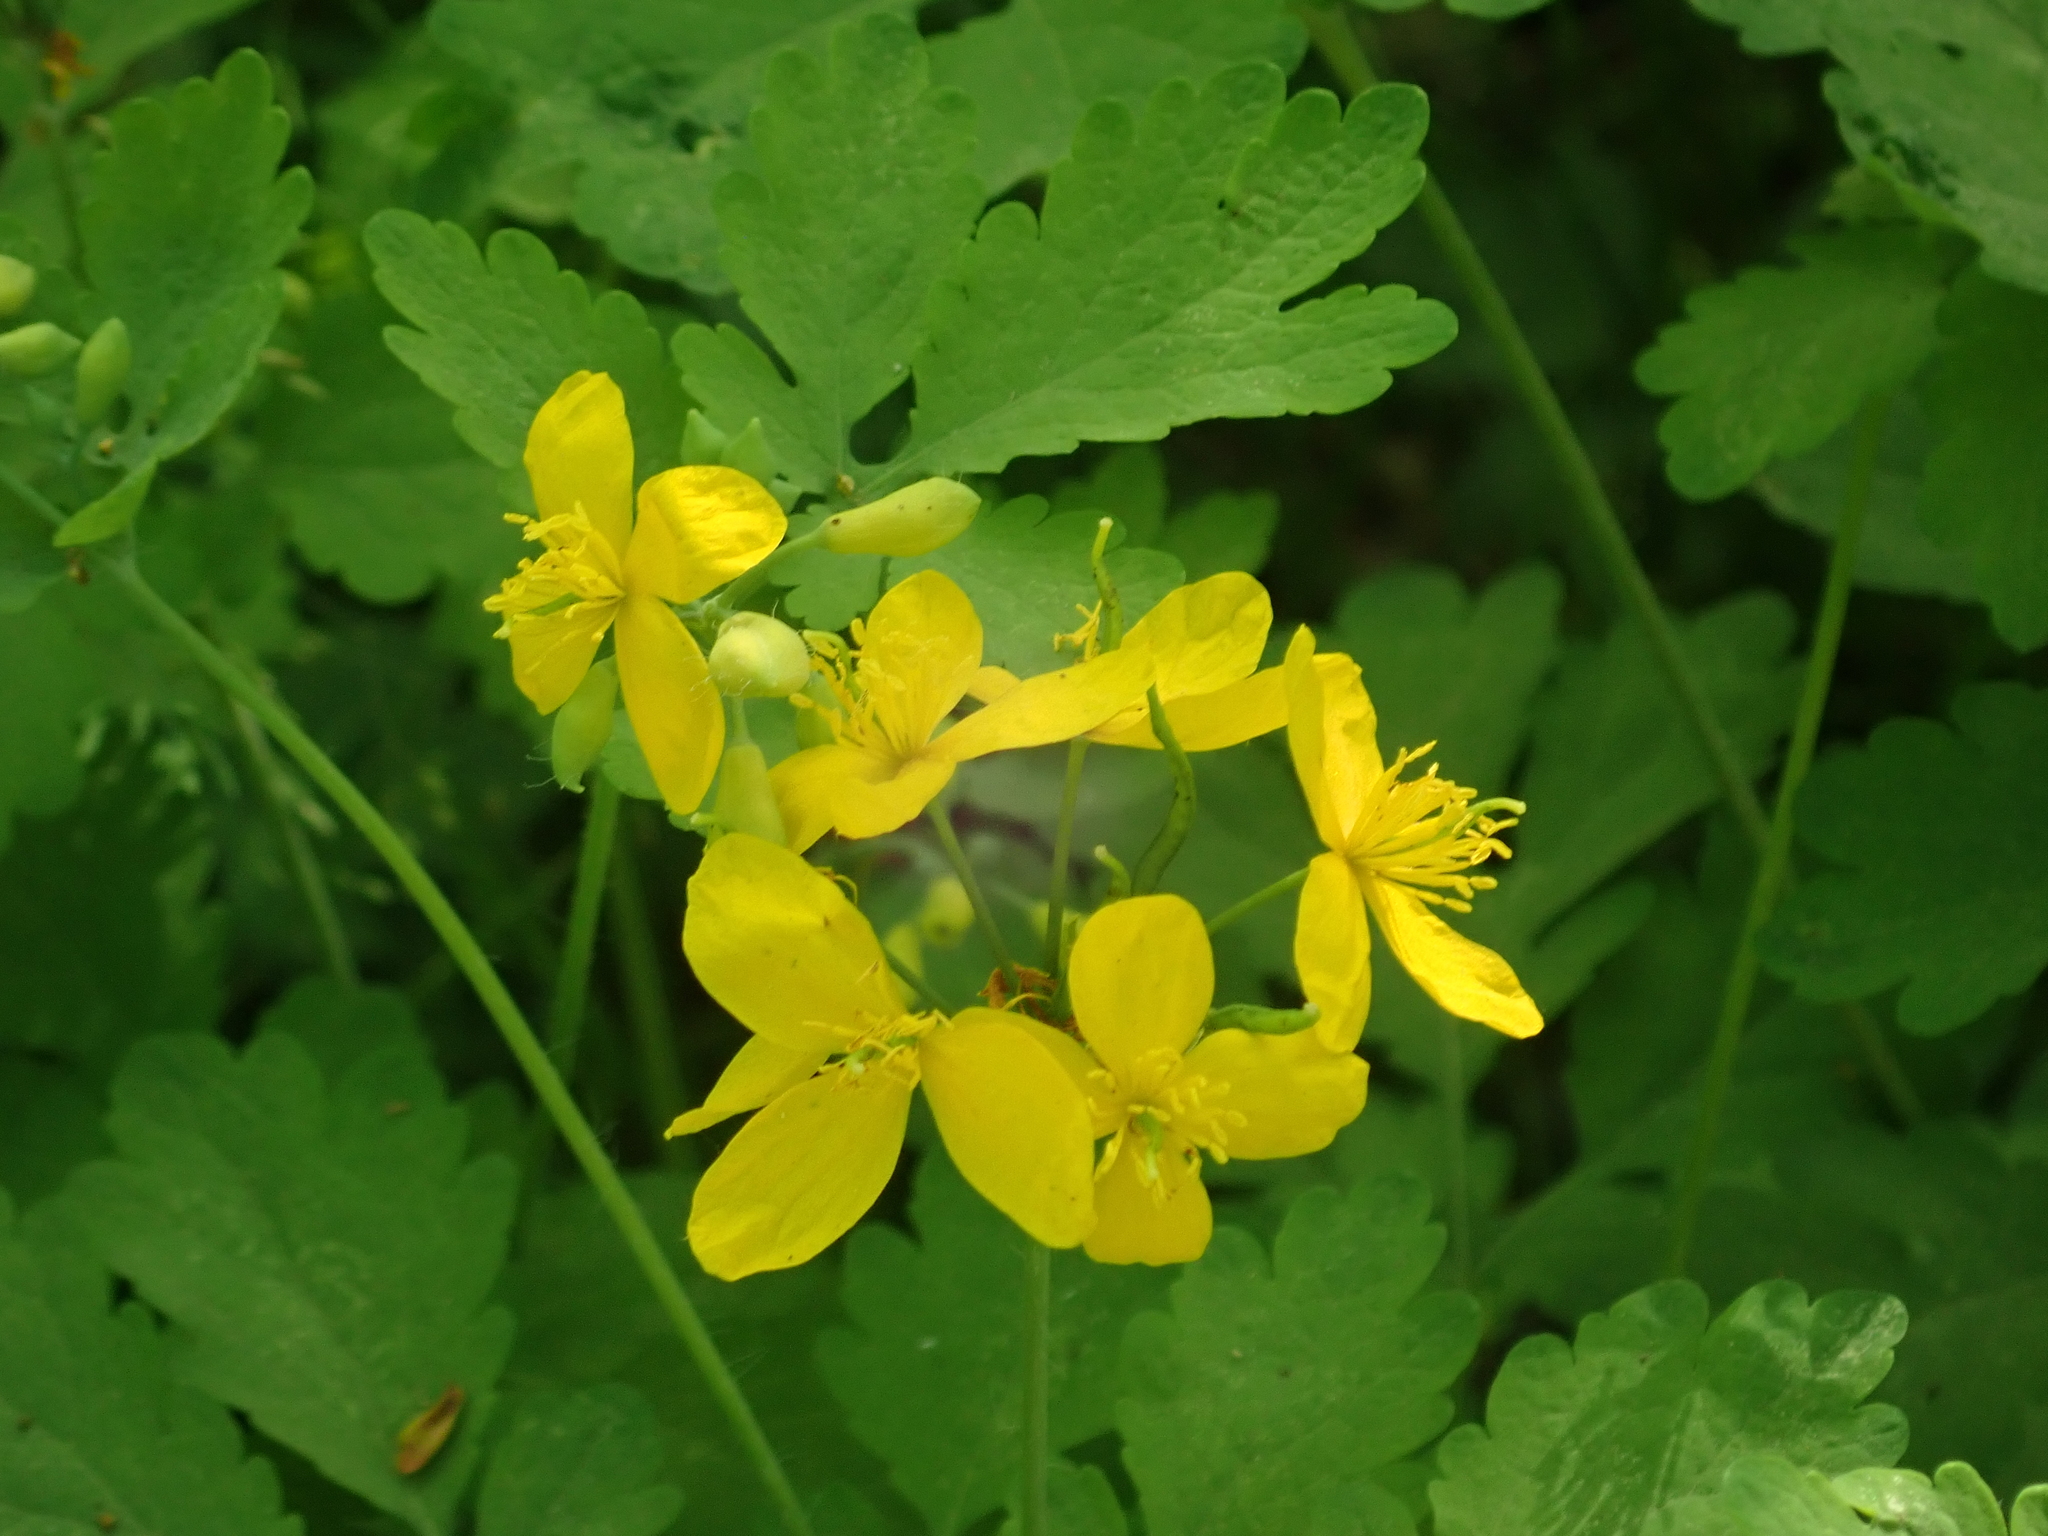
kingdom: Plantae
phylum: Tracheophyta
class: Magnoliopsida
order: Ranunculales
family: Papaveraceae
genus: Chelidonium
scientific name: Chelidonium majus
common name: Greater celandine
